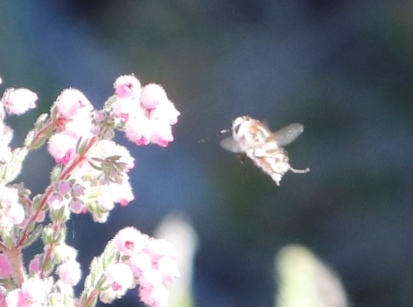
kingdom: Plantae
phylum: Tracheophyta
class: Magnoliopsida
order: Ericales
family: Ericaceae
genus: Erica
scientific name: Erica hirtiflora
